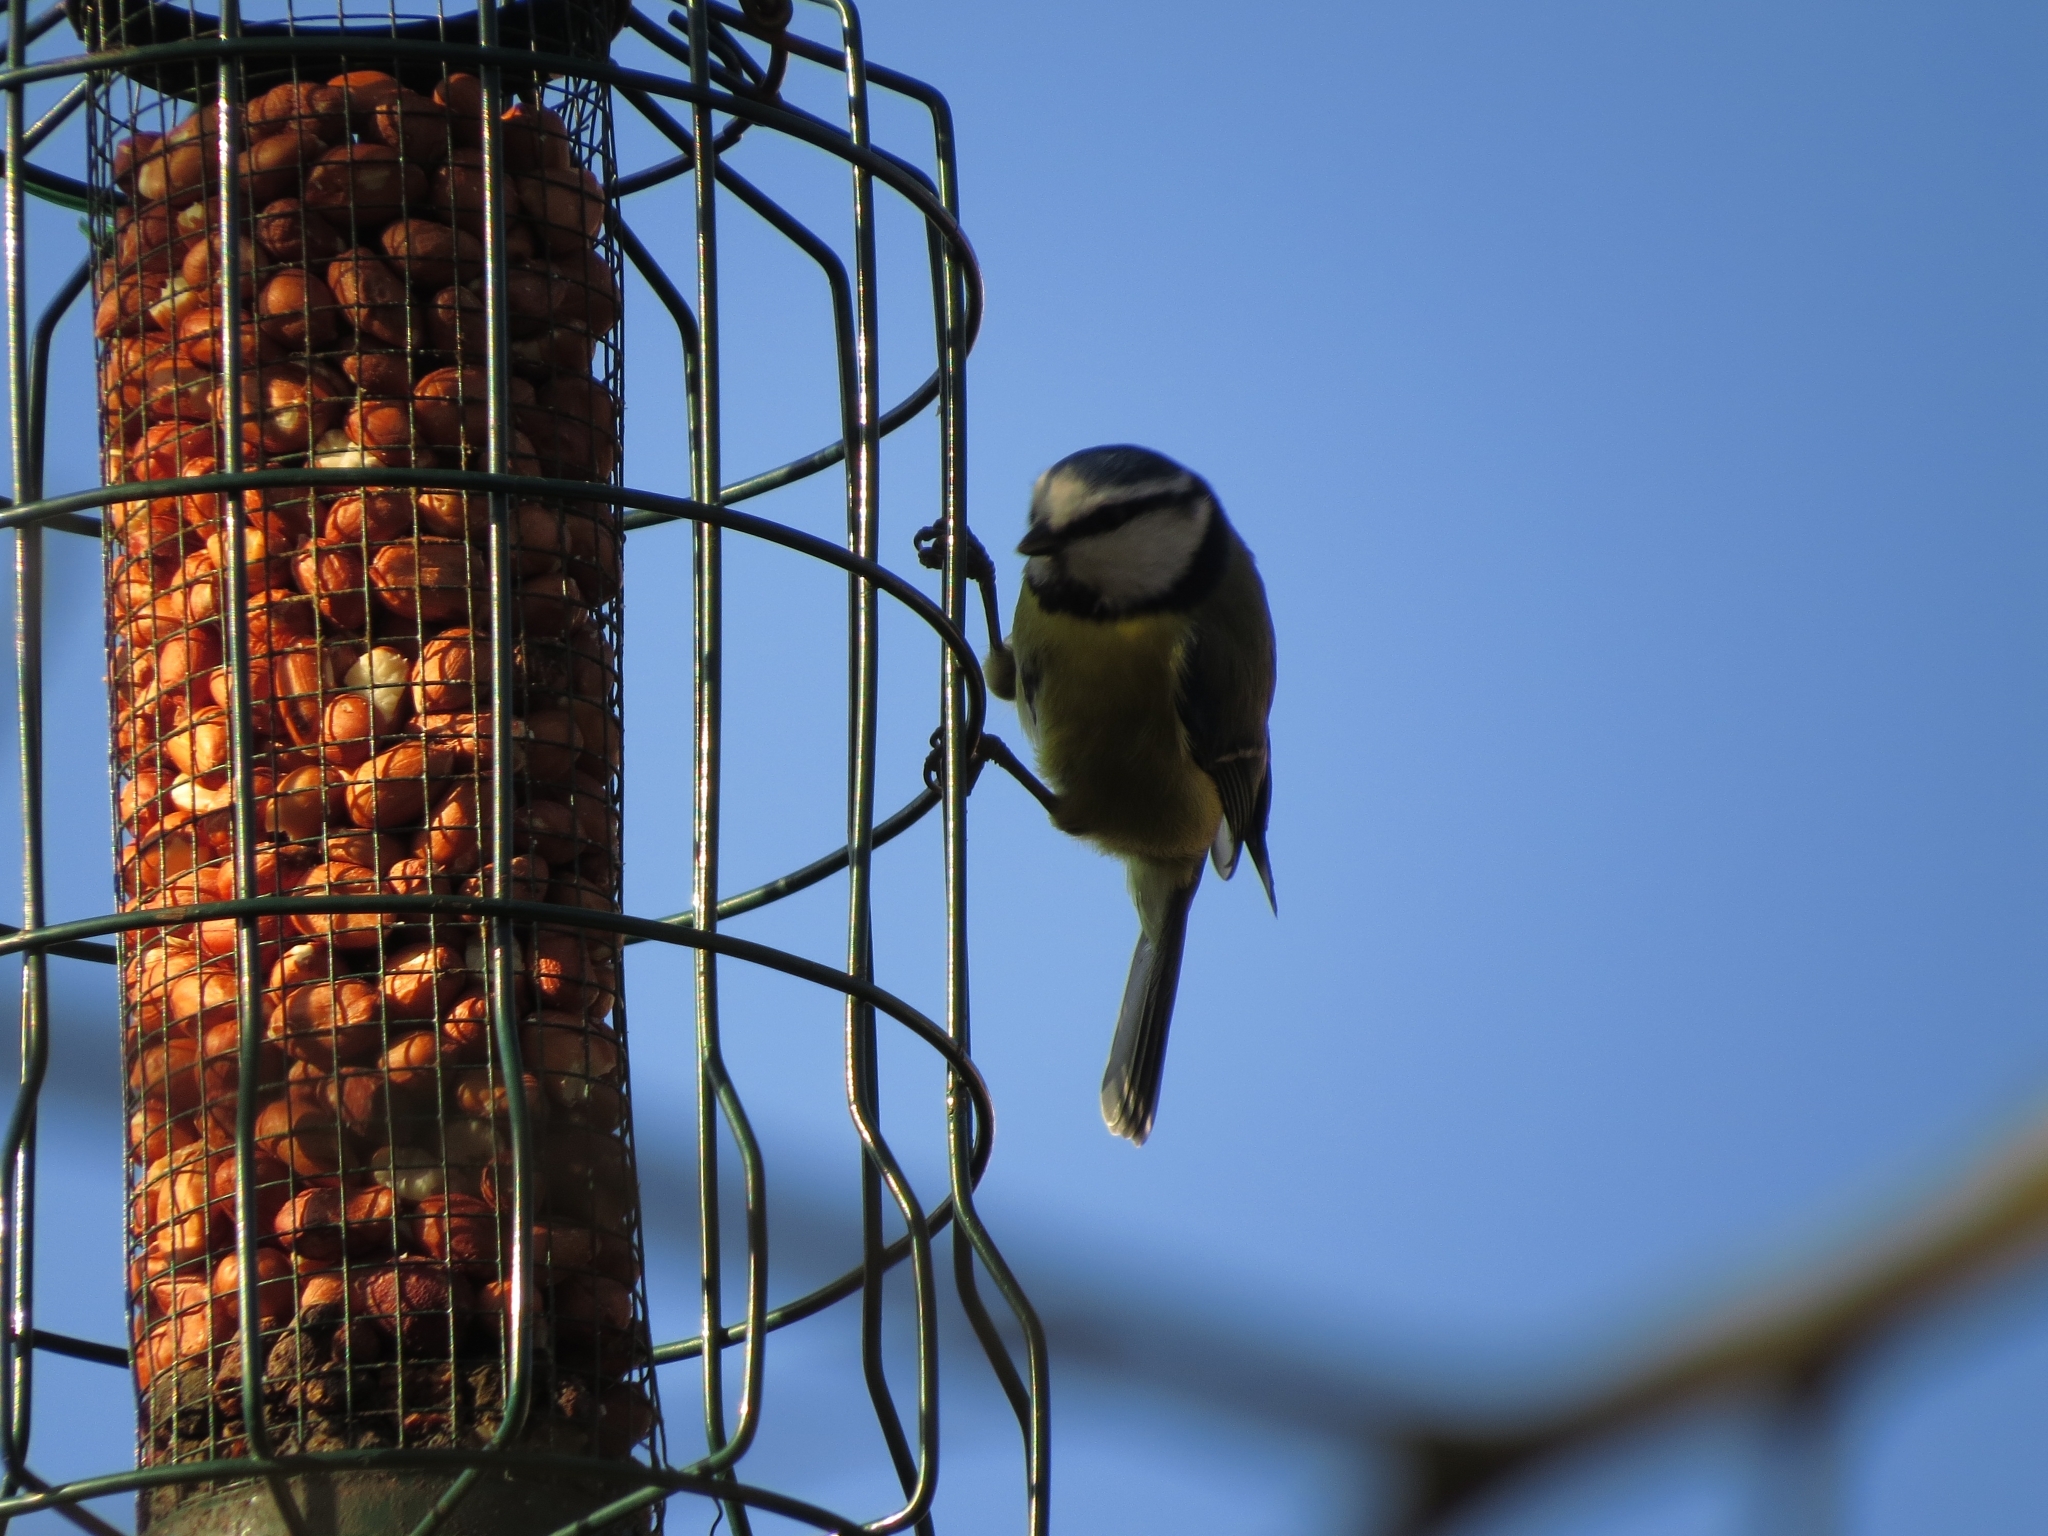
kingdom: Animalia
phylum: Chordata
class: Aves
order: Passeriformes
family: Paridae
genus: Cyanistes
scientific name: Cyanistes caeruleus
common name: Eurasian blue tit
